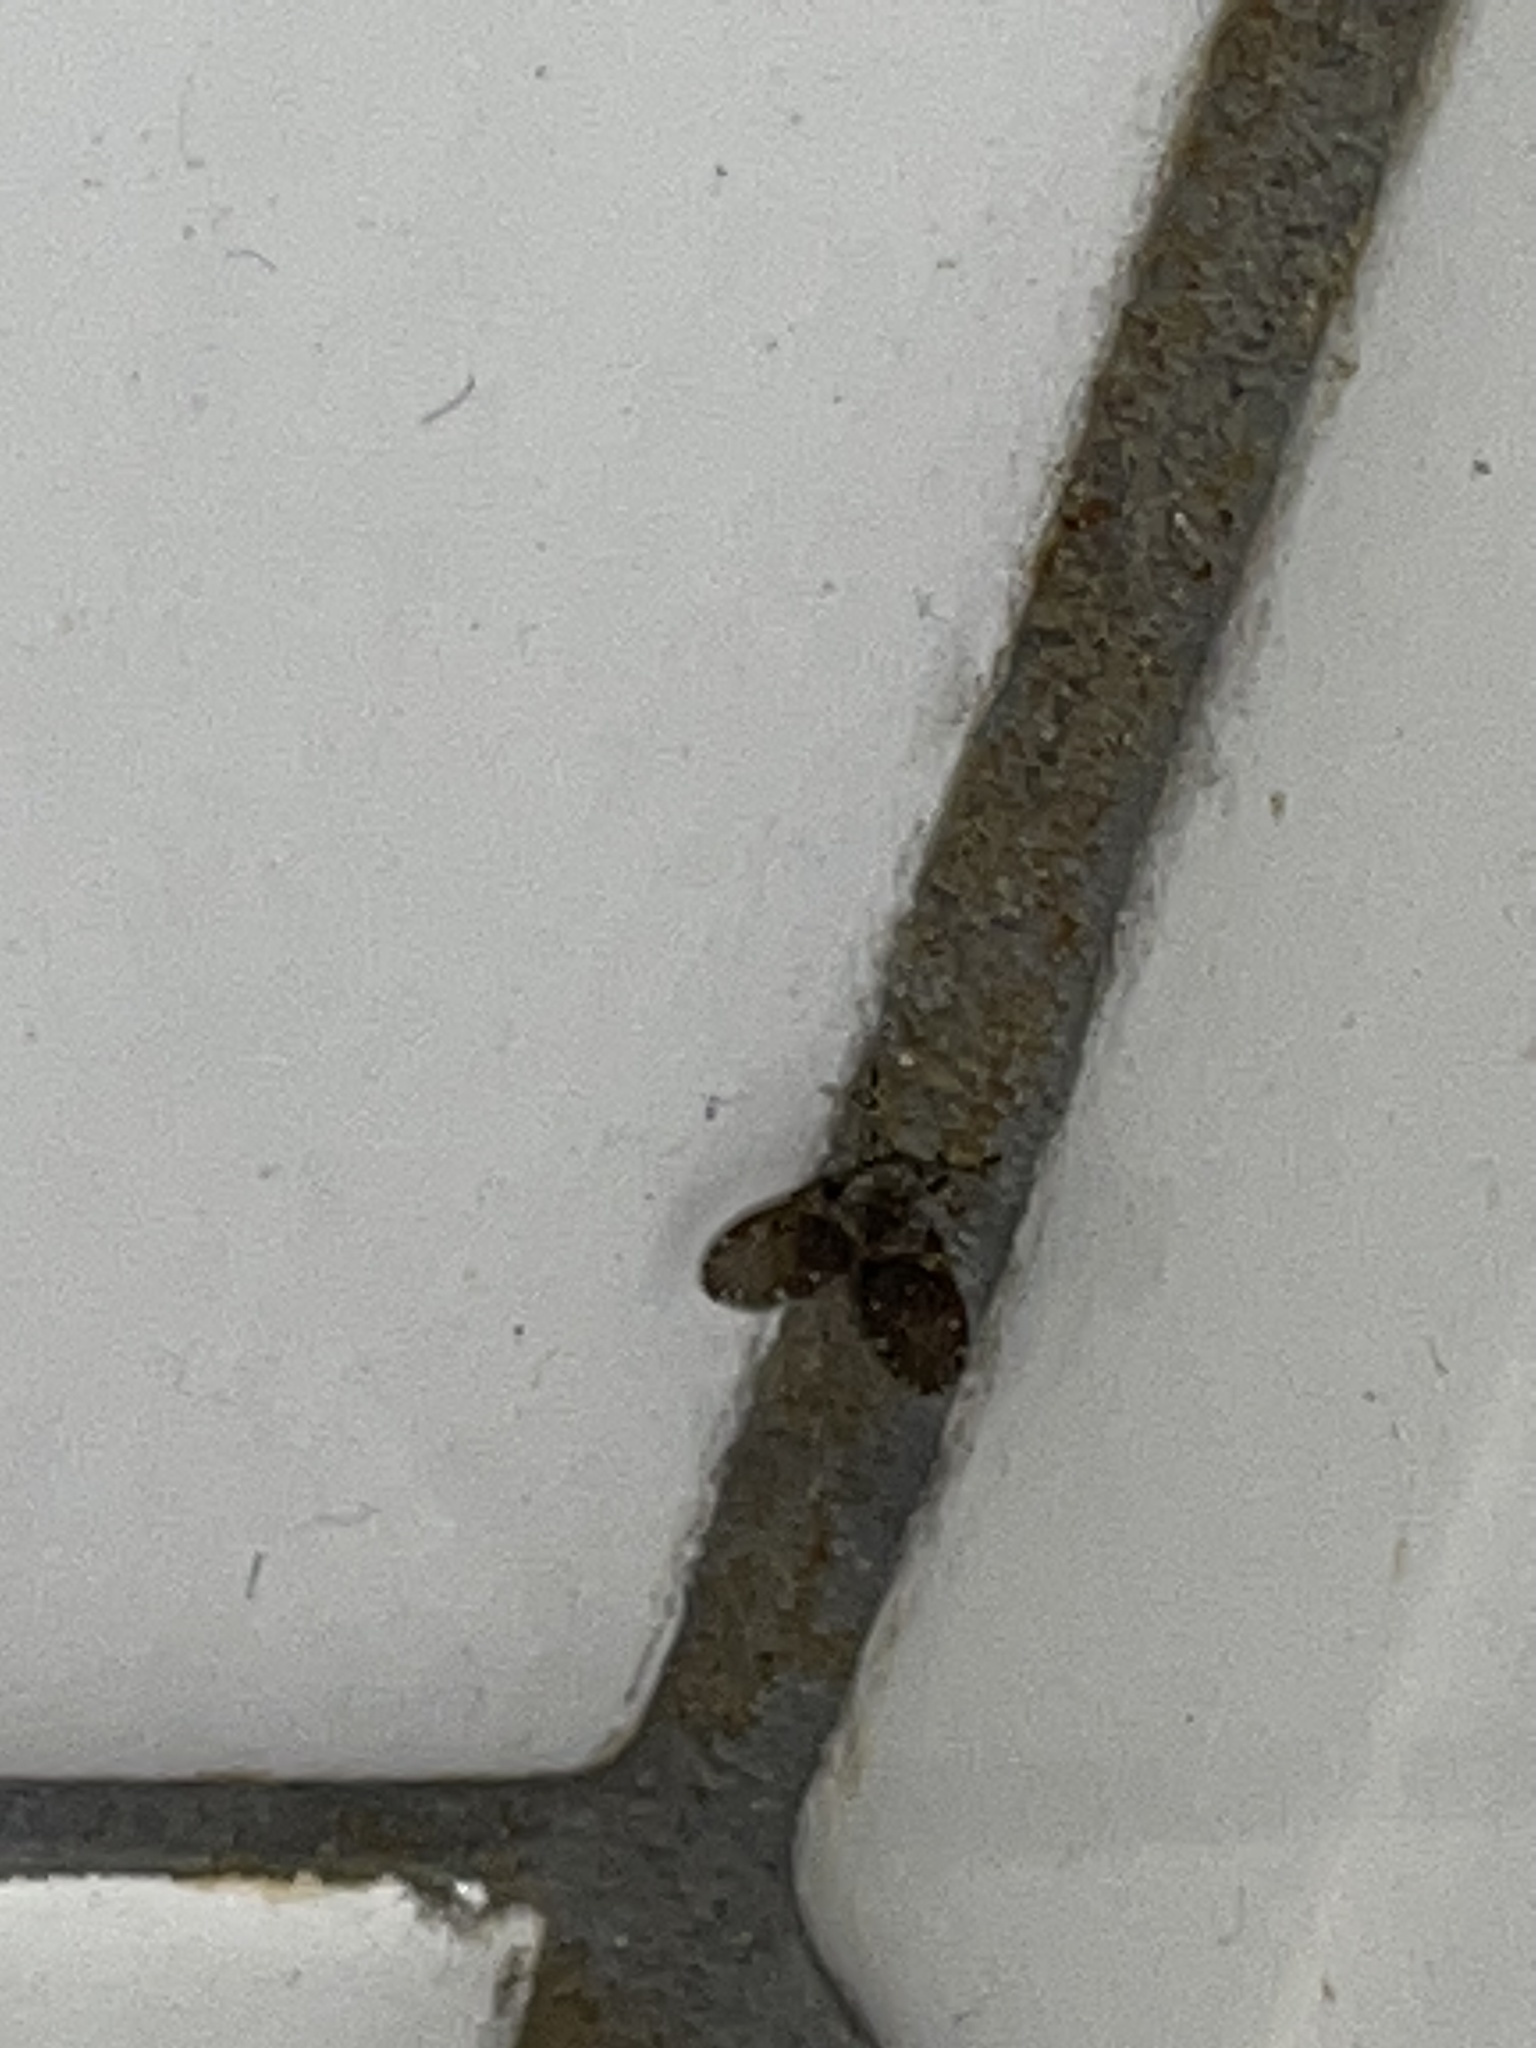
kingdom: Animalia
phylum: Arthropoda
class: Insecta
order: Diptera
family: Psychodidae
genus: Clogmia
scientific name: Clogmia albipunctatus
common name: White-spotted moth fly
